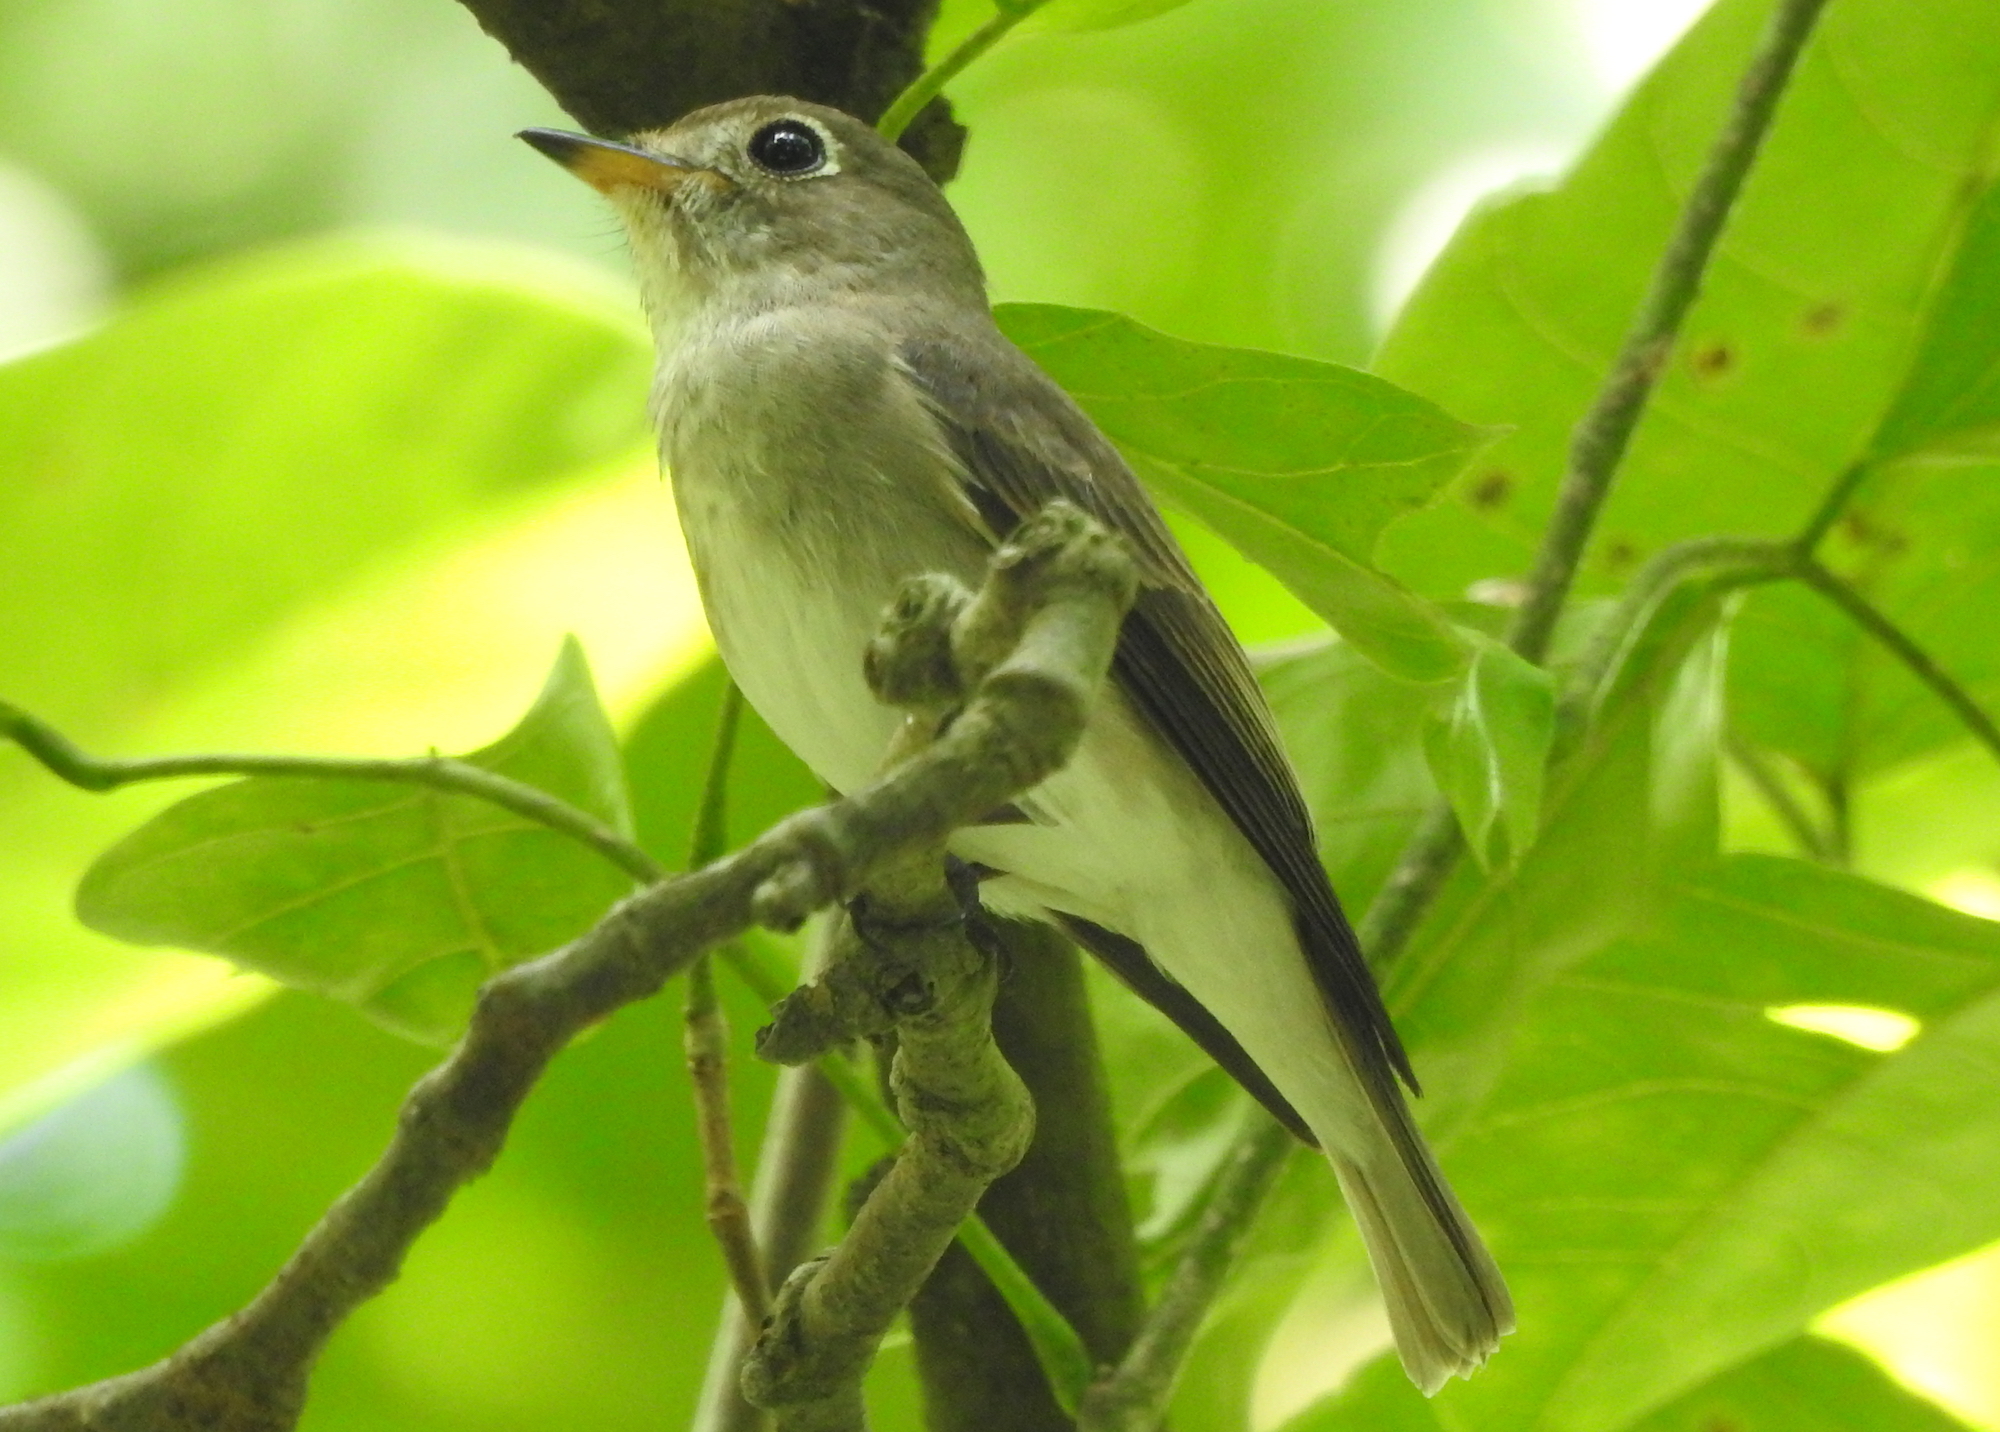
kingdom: Animalia
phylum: Chordata
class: Aves
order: Passeriformes
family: Muscicapidae
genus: Muscicapa
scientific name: Muscicapa latirostris
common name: Asian brown flycatcher
